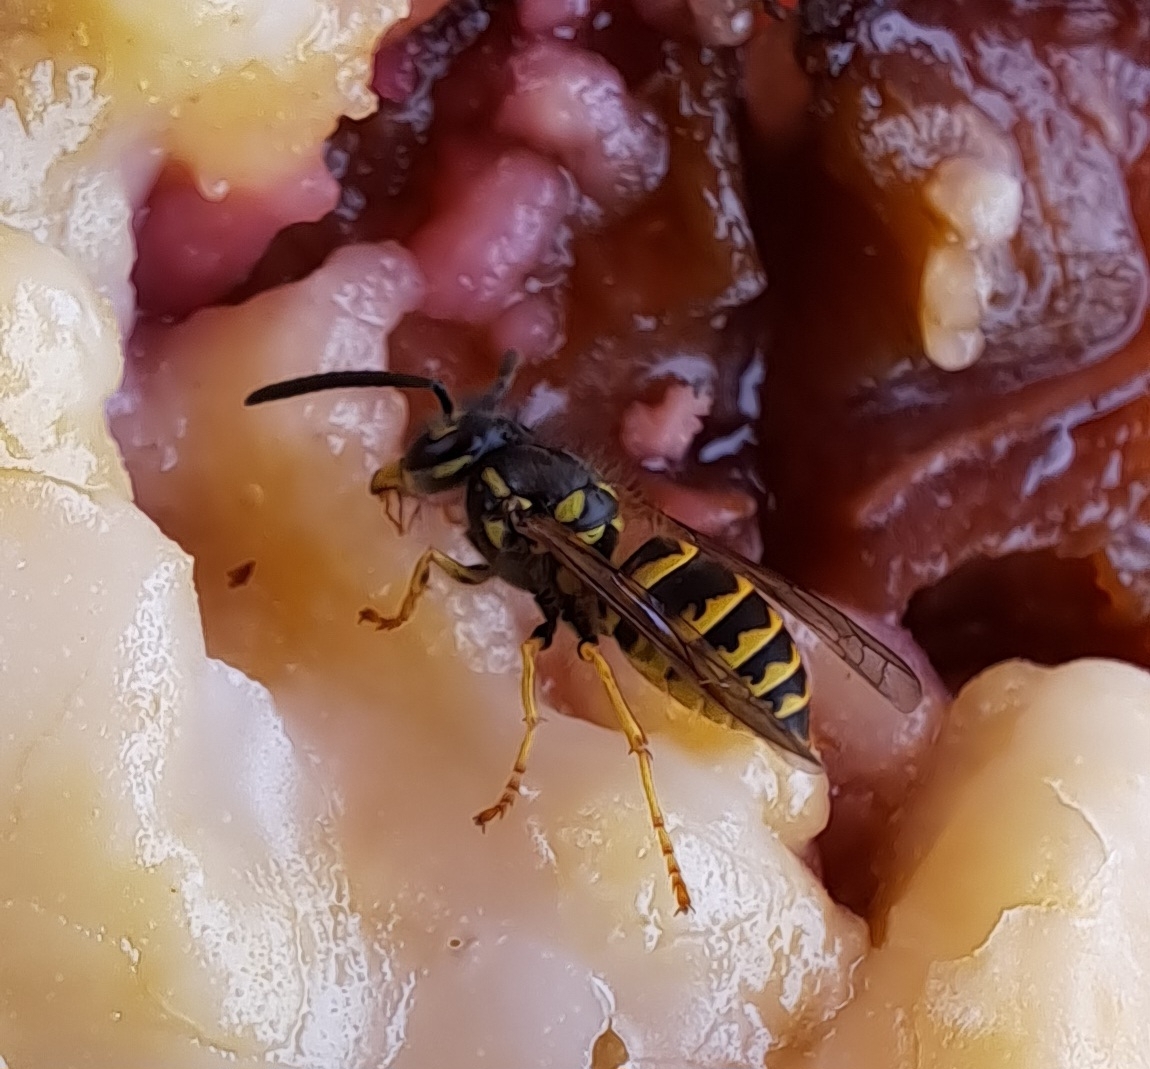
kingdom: Animalia
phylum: Arthropoda
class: Insecta
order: Hymenoptera
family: Vespidae
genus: Vespula
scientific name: Vespula vulgaris
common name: Common wasp
